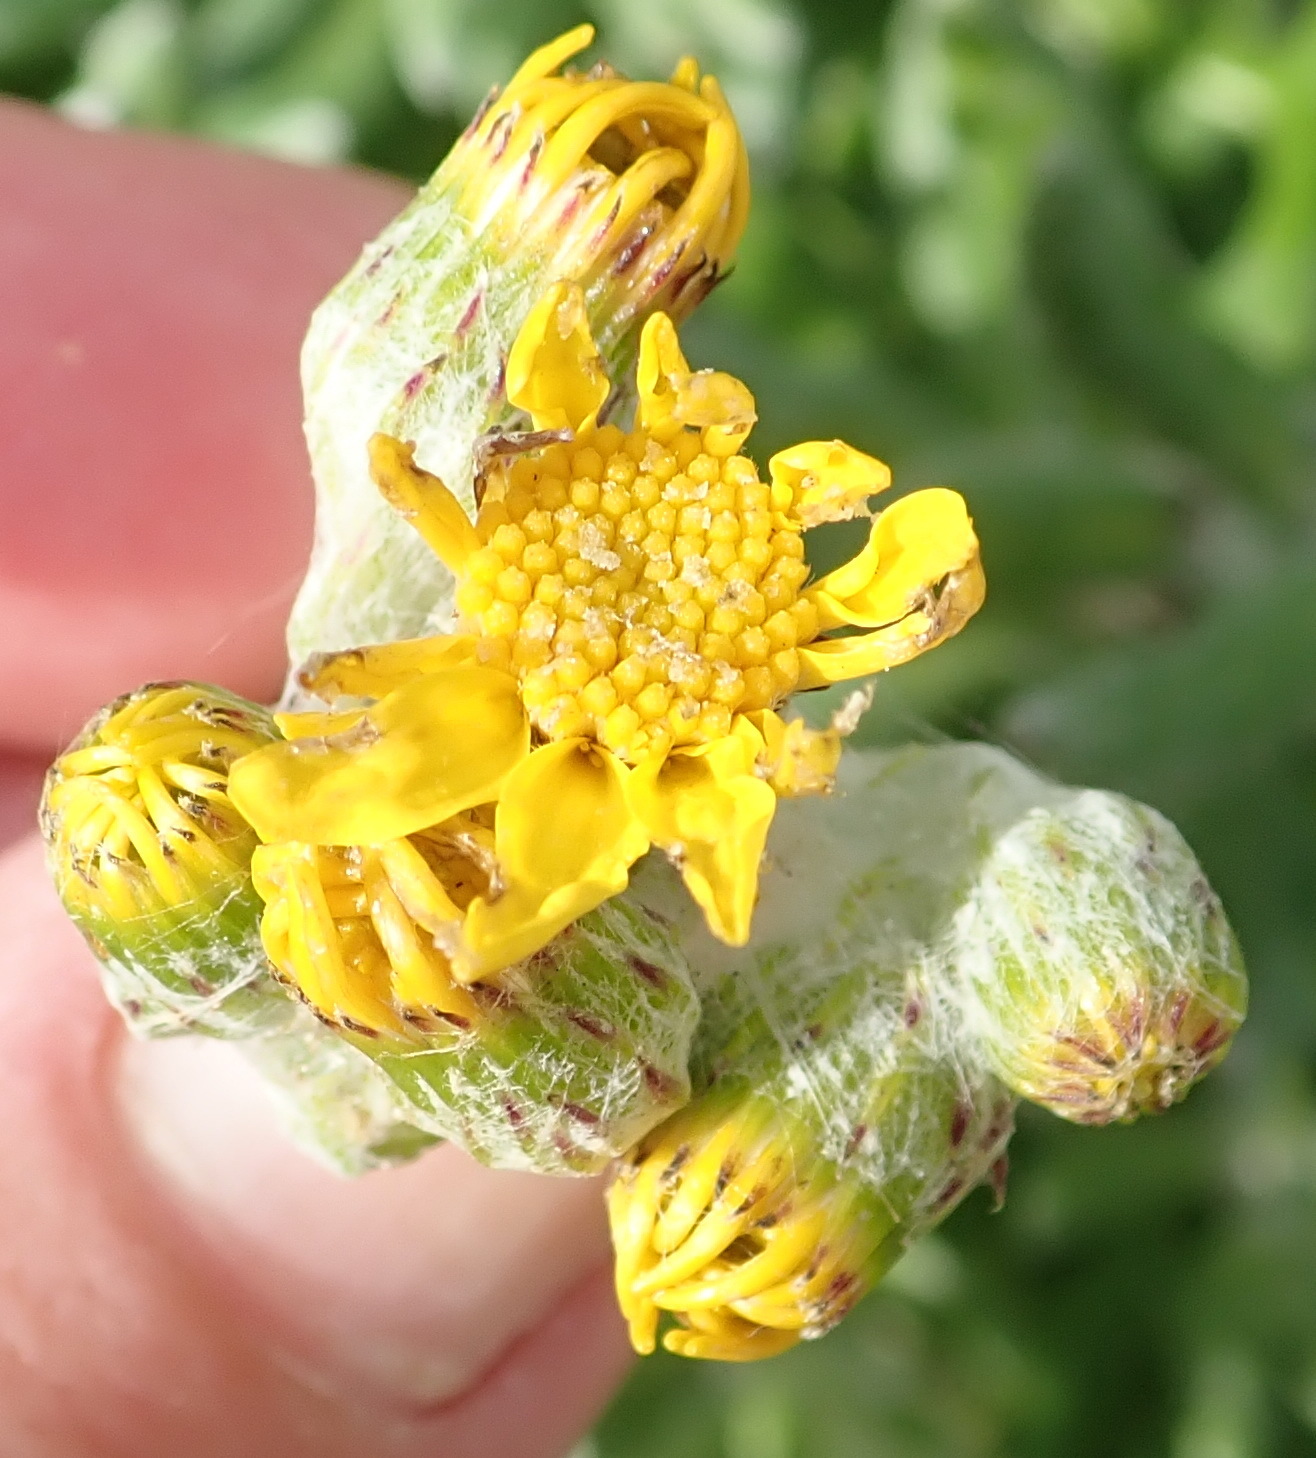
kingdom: Plantae
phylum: Tracheophyta
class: Magnoliopsida
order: Asterales
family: Asteraceae
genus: Senecio
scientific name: Senecio arniciflorus
